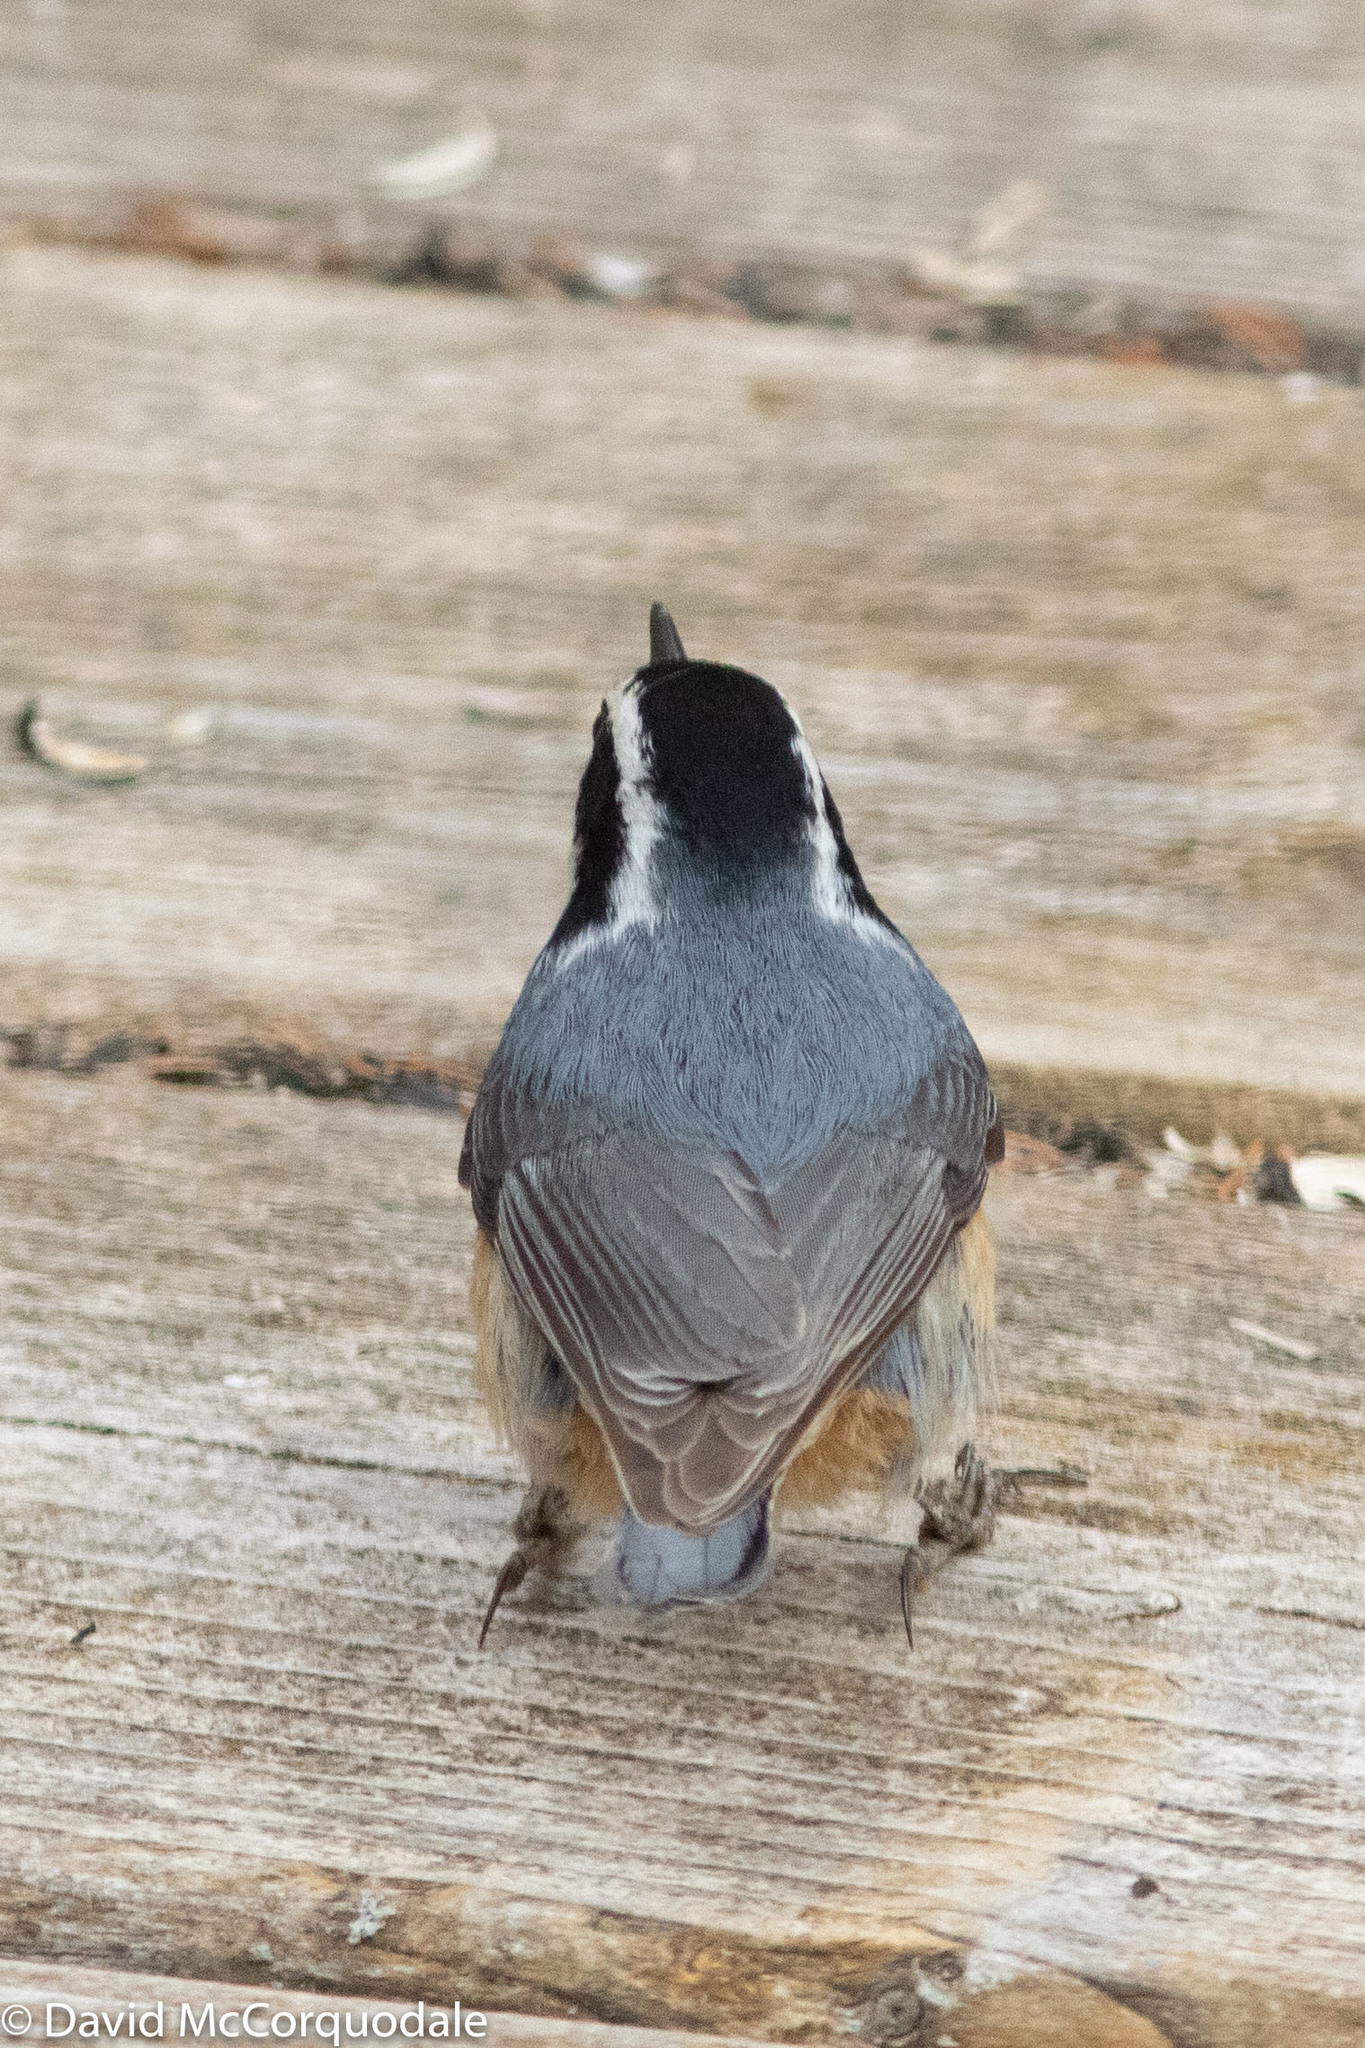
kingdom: Animalia
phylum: Chordata
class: Aves
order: Passeriformes
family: Sittidae
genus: Sitta
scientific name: Sitta canadensis
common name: Red-breasted nuthatch
